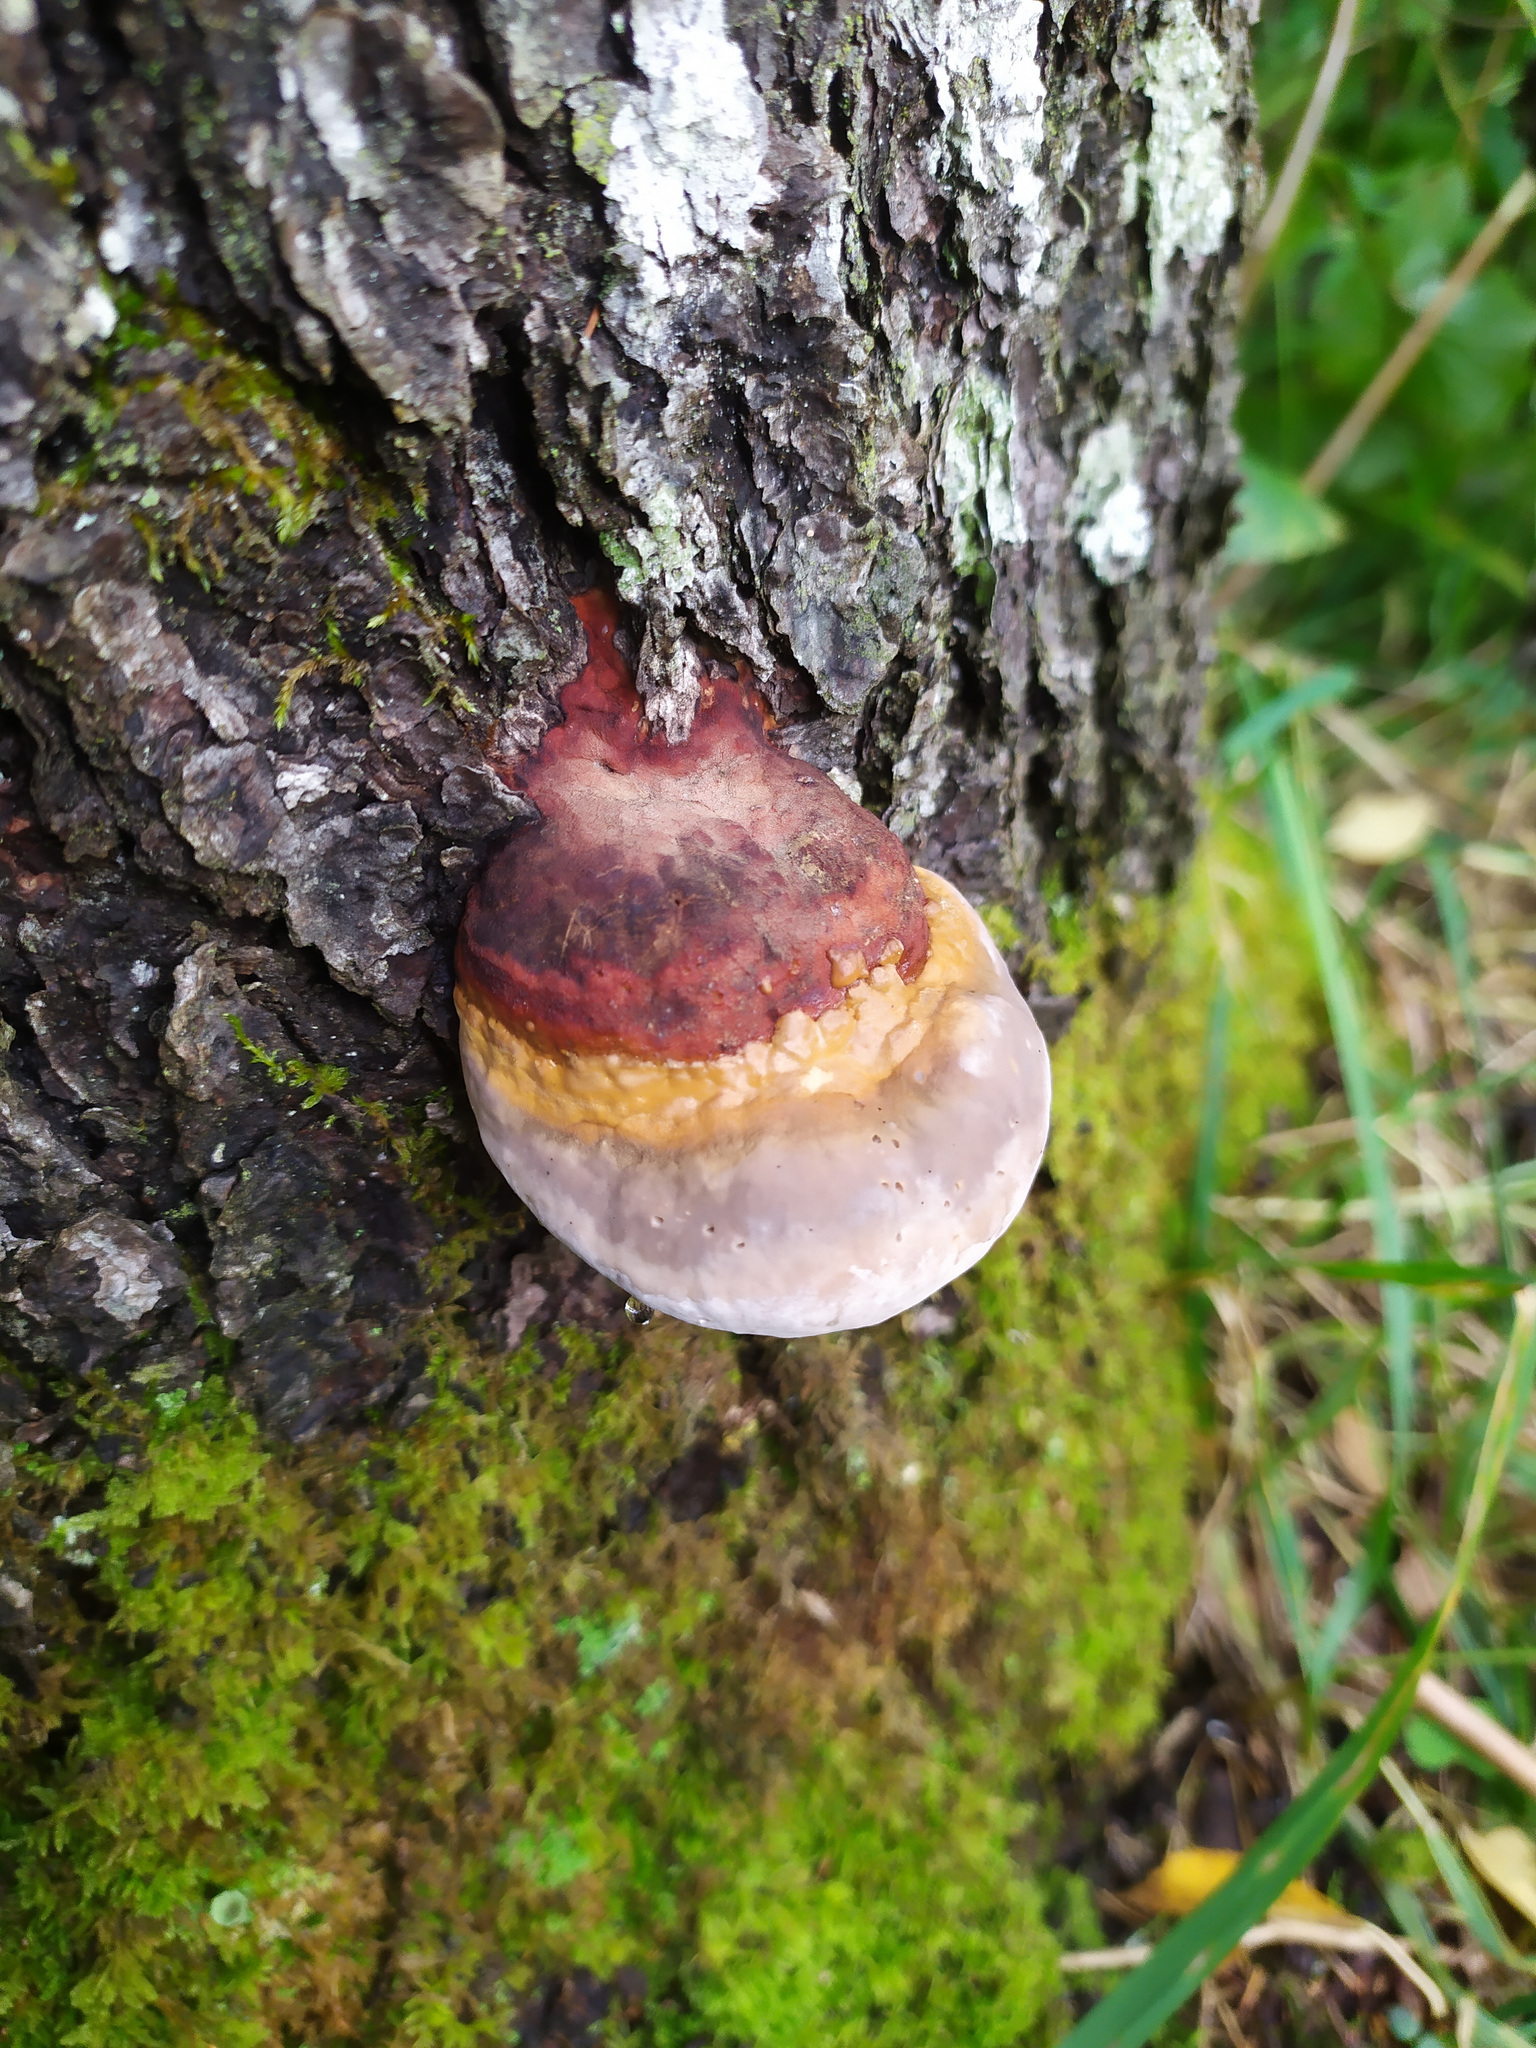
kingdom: Fungi
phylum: Basidiomycota
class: Agaricomycetes
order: Polyporales
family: Fomitopsidaceae
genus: Fomitopsis
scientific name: Fomitopsis pinicola
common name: Red-belted bracket
